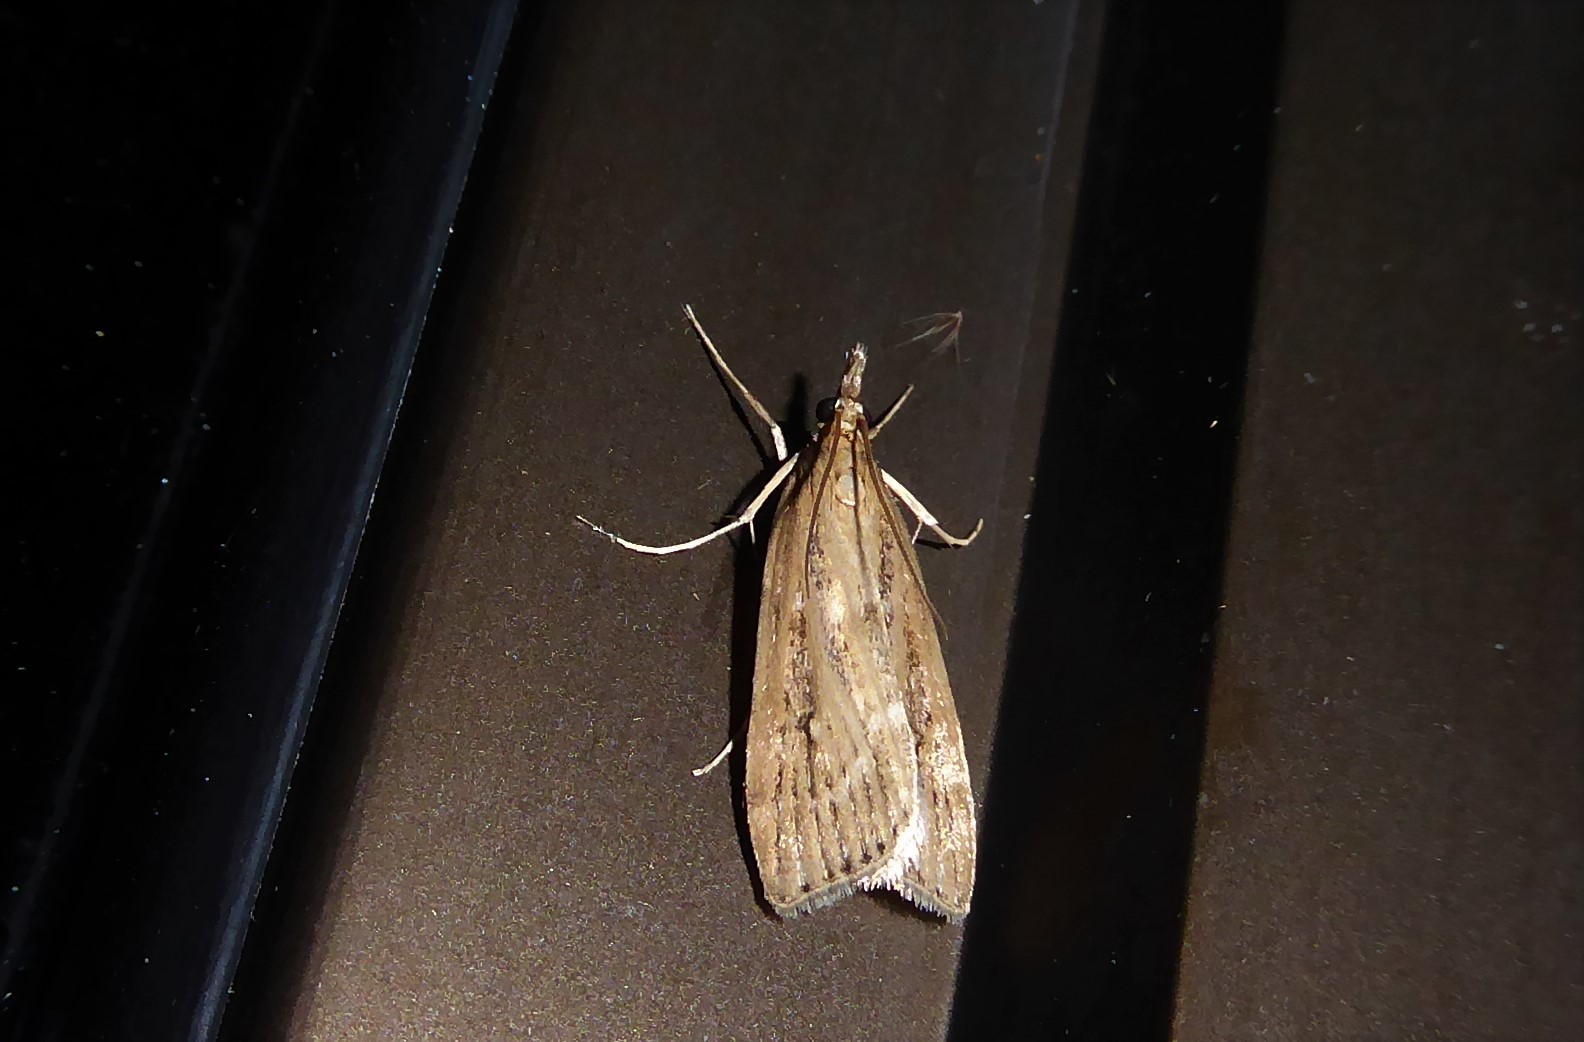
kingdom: Animalia
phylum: Arthropoda
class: Insecta
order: Lepidoptera
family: Crambidae
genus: Eudonia
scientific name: Eudonia octophora
